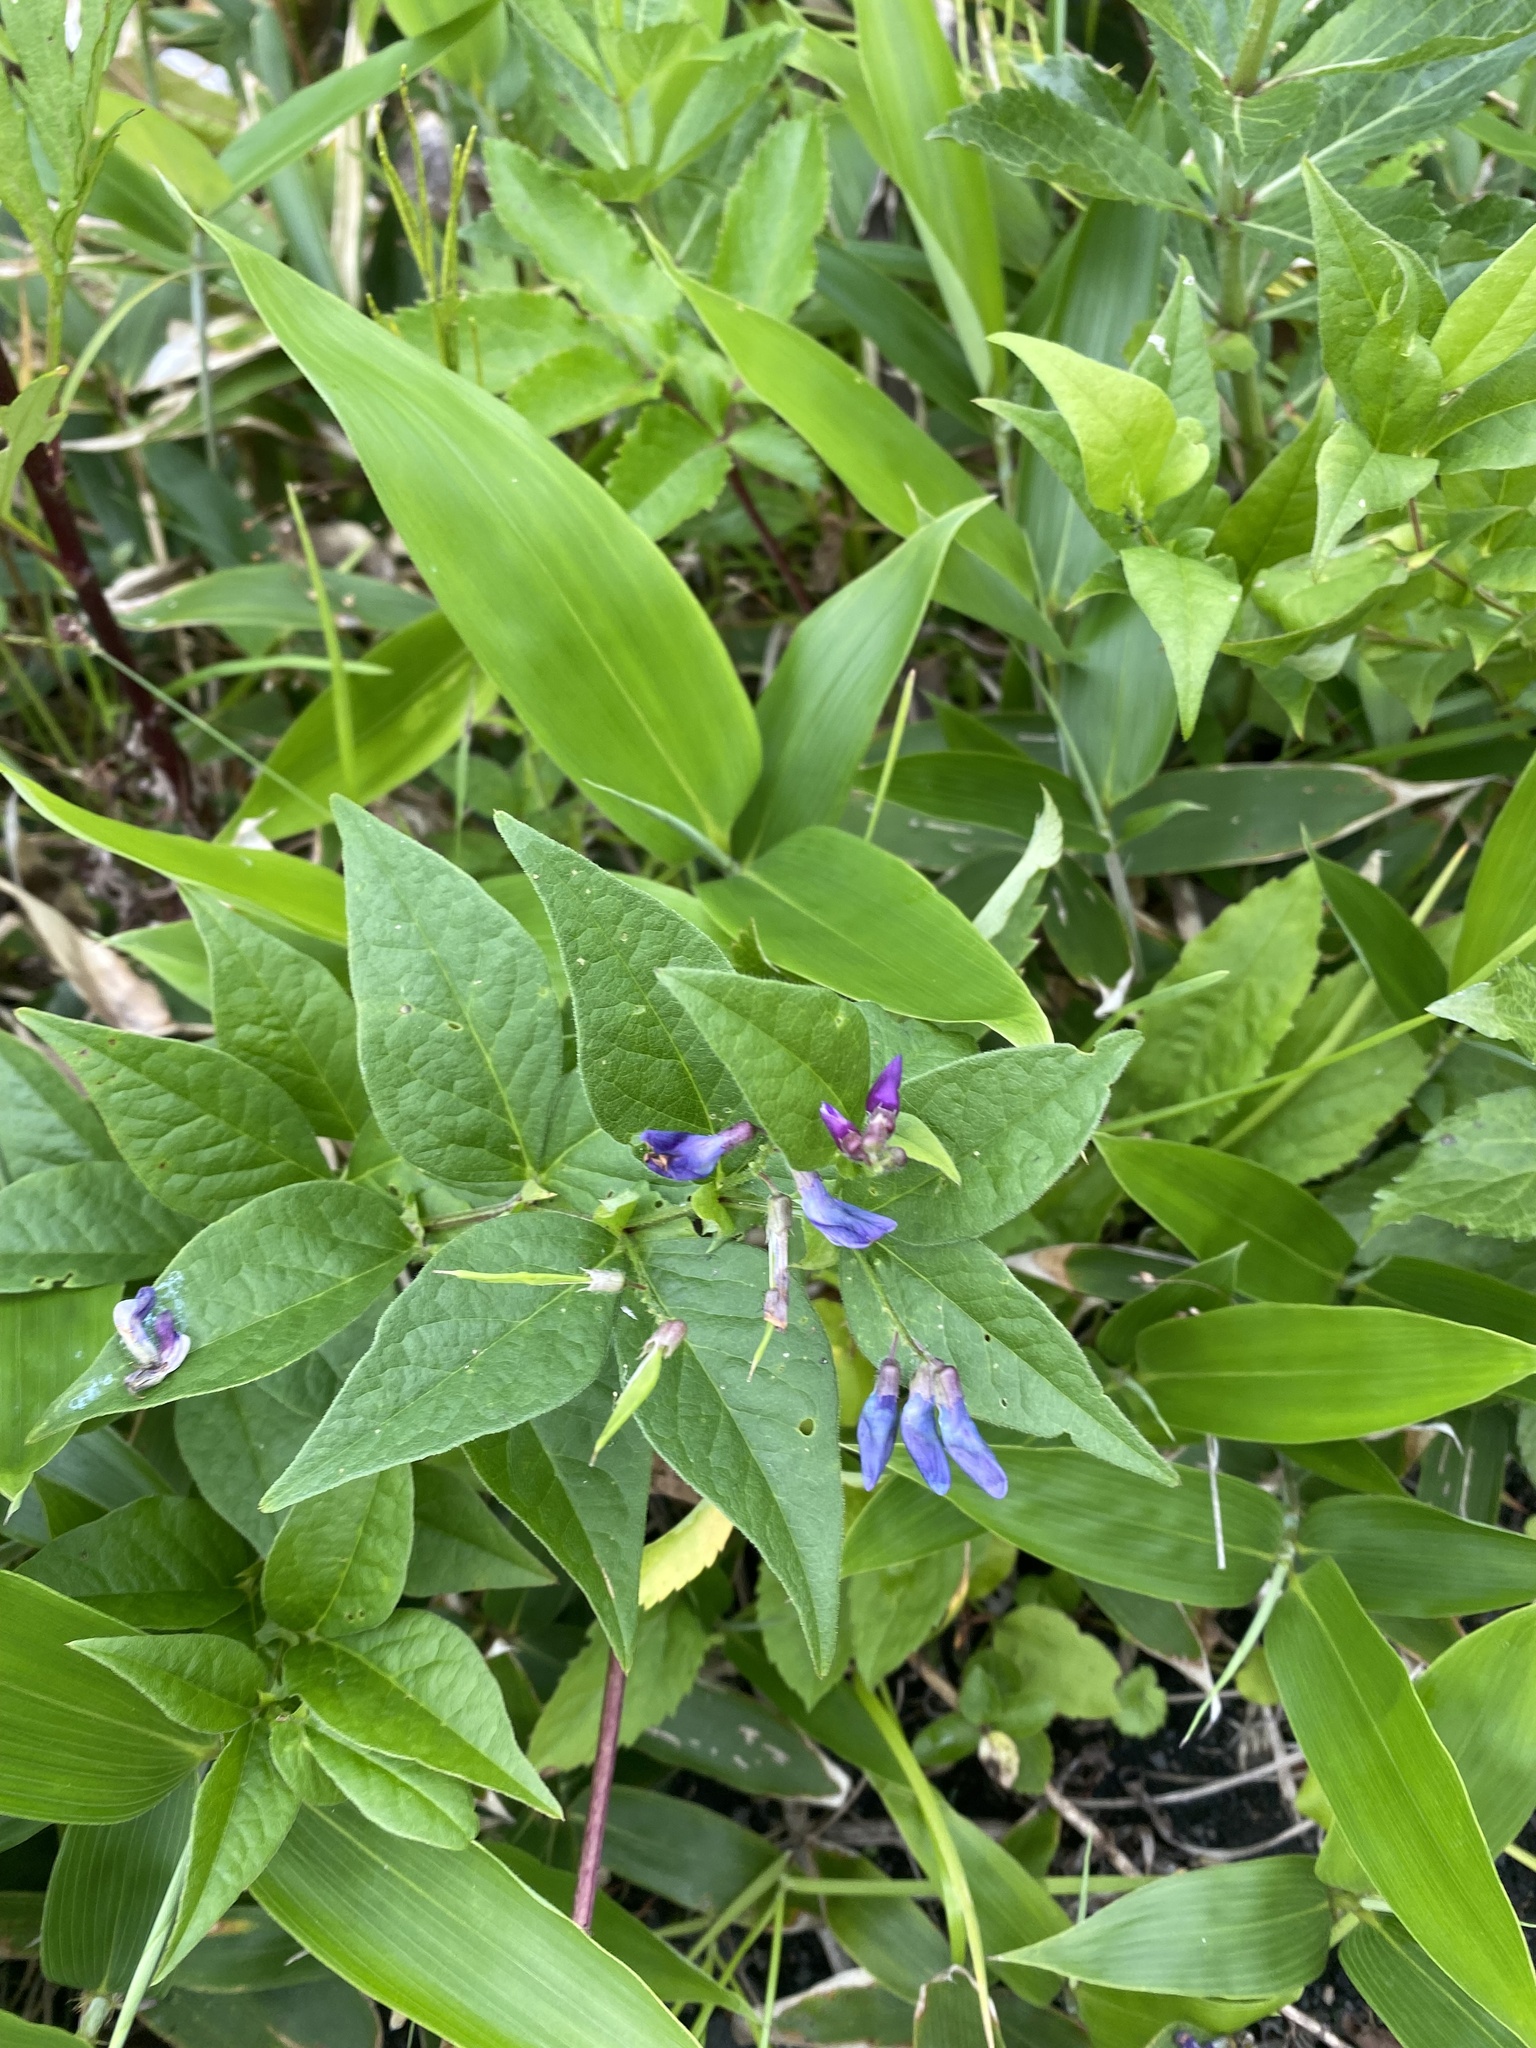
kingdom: Plantae
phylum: Tracheophyta
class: Magnoliopsida
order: Fabales
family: Fabaceae
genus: Vicia
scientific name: Vicia unijuga
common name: Two-leaf vetch
